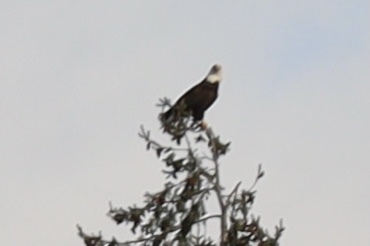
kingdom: Animalia
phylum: Chordata
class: Aves
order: Accipitriformes
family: Accipitridae
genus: Haliaeetus
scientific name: Haliaeetus leucocephalus
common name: Bald eagle
